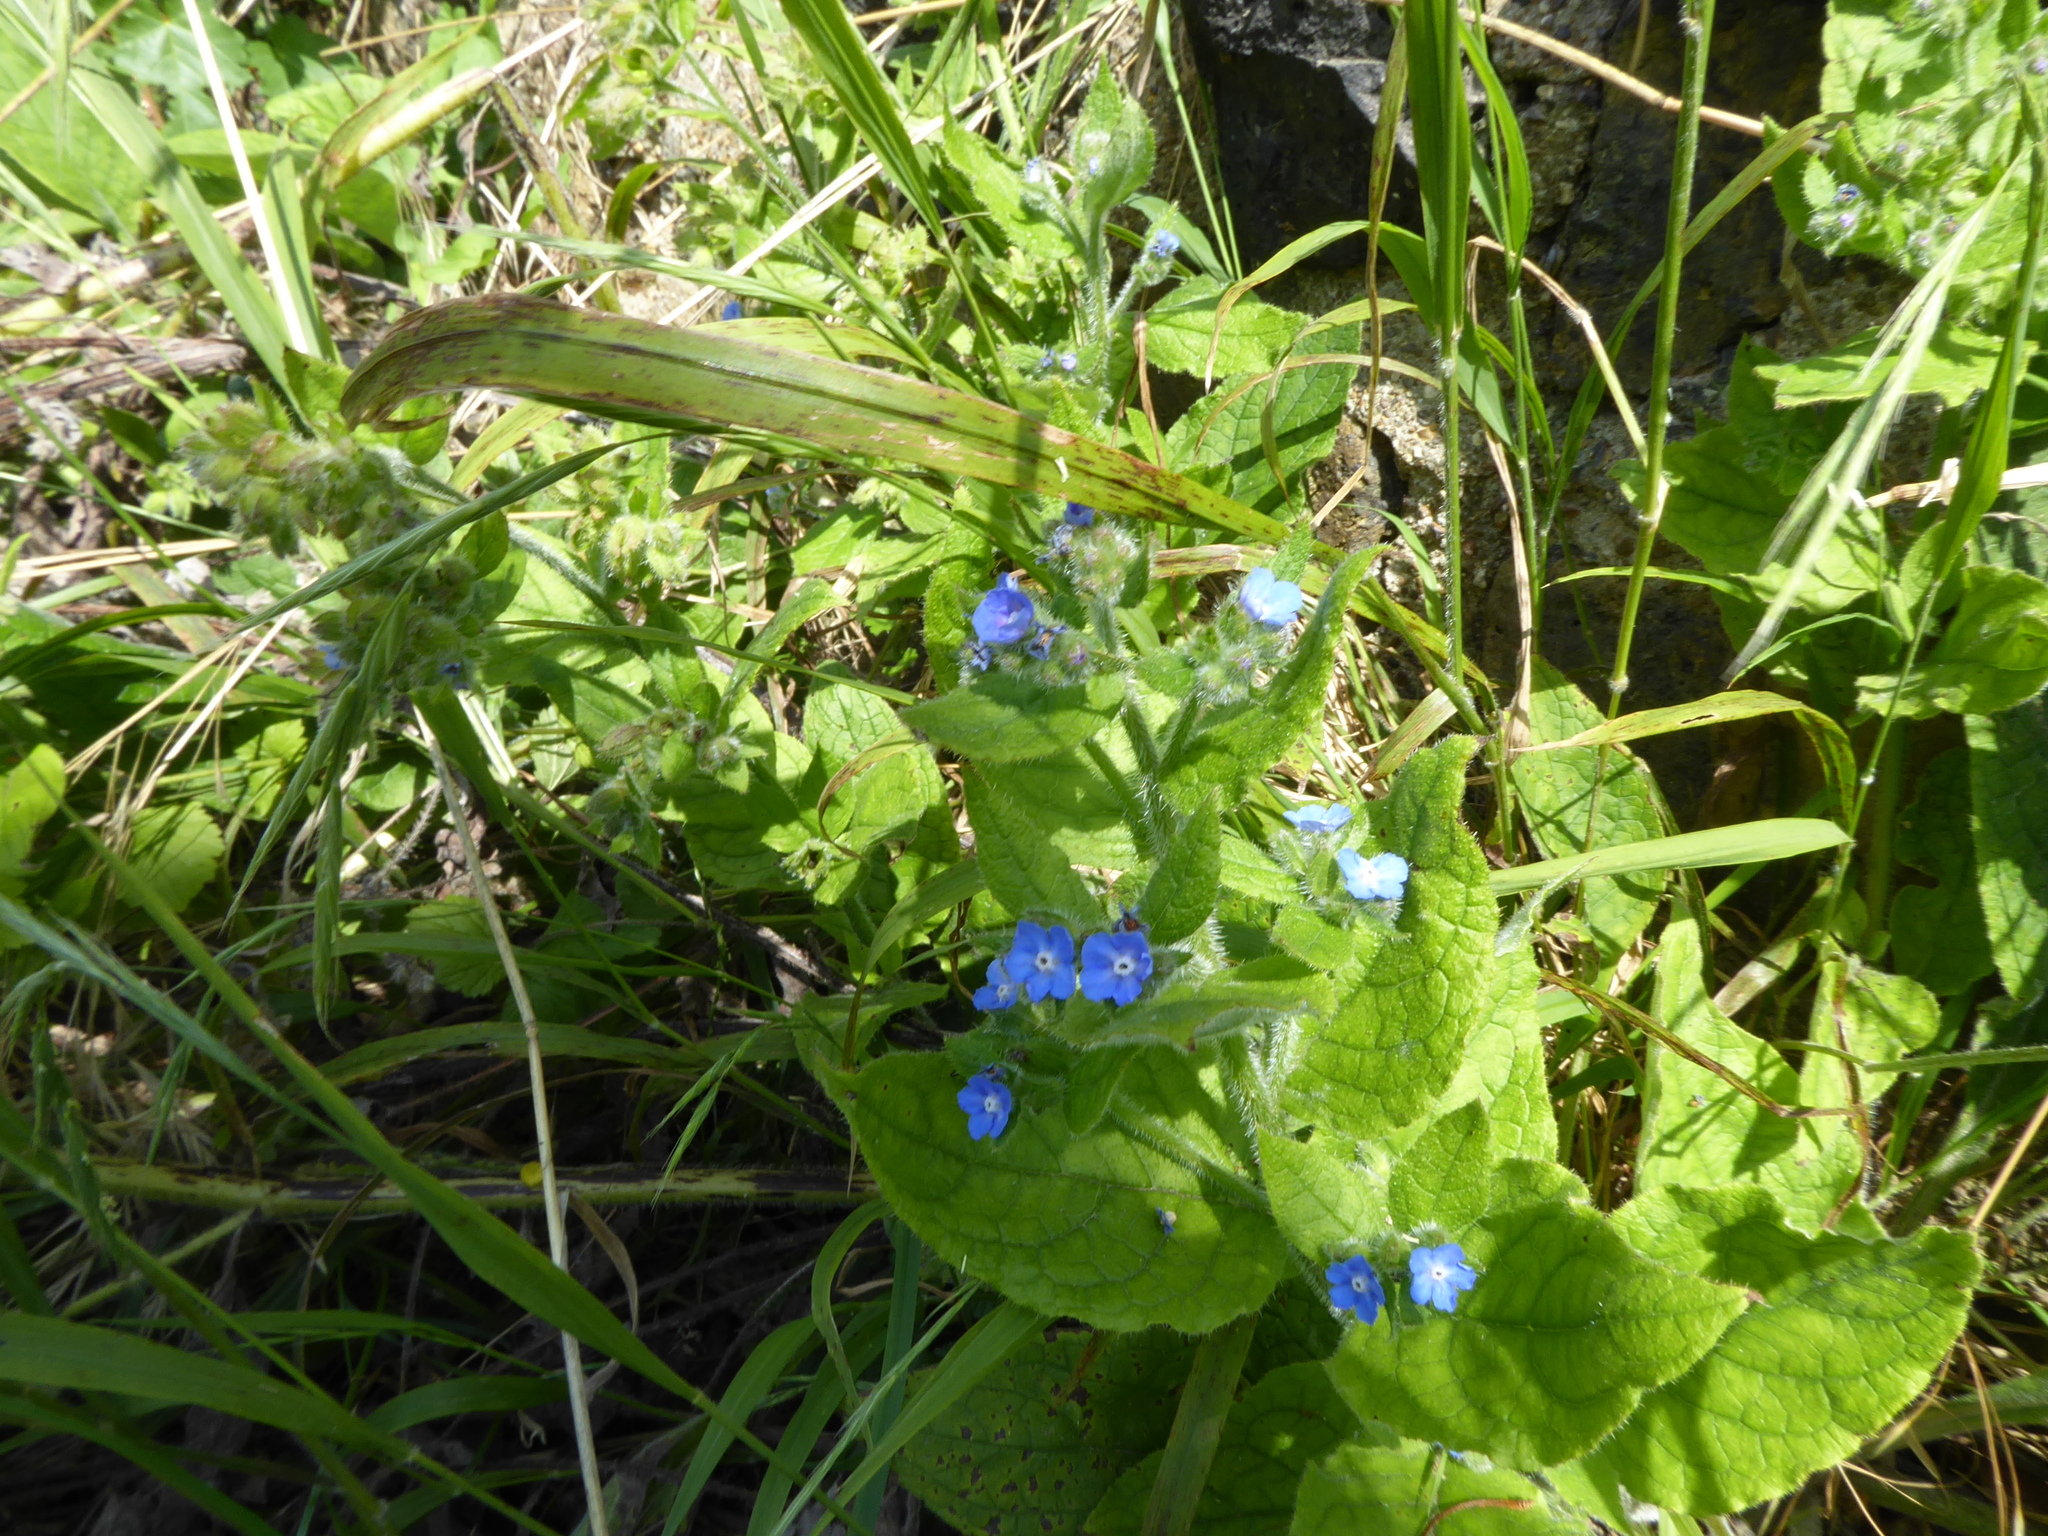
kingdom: Plantae
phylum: Tracheophyta
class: Magnoliopsida
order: Boraginales
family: Boraginaceae
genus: Pentaglottis
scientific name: Pentaglottis sempervirens
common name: Green alkanet
